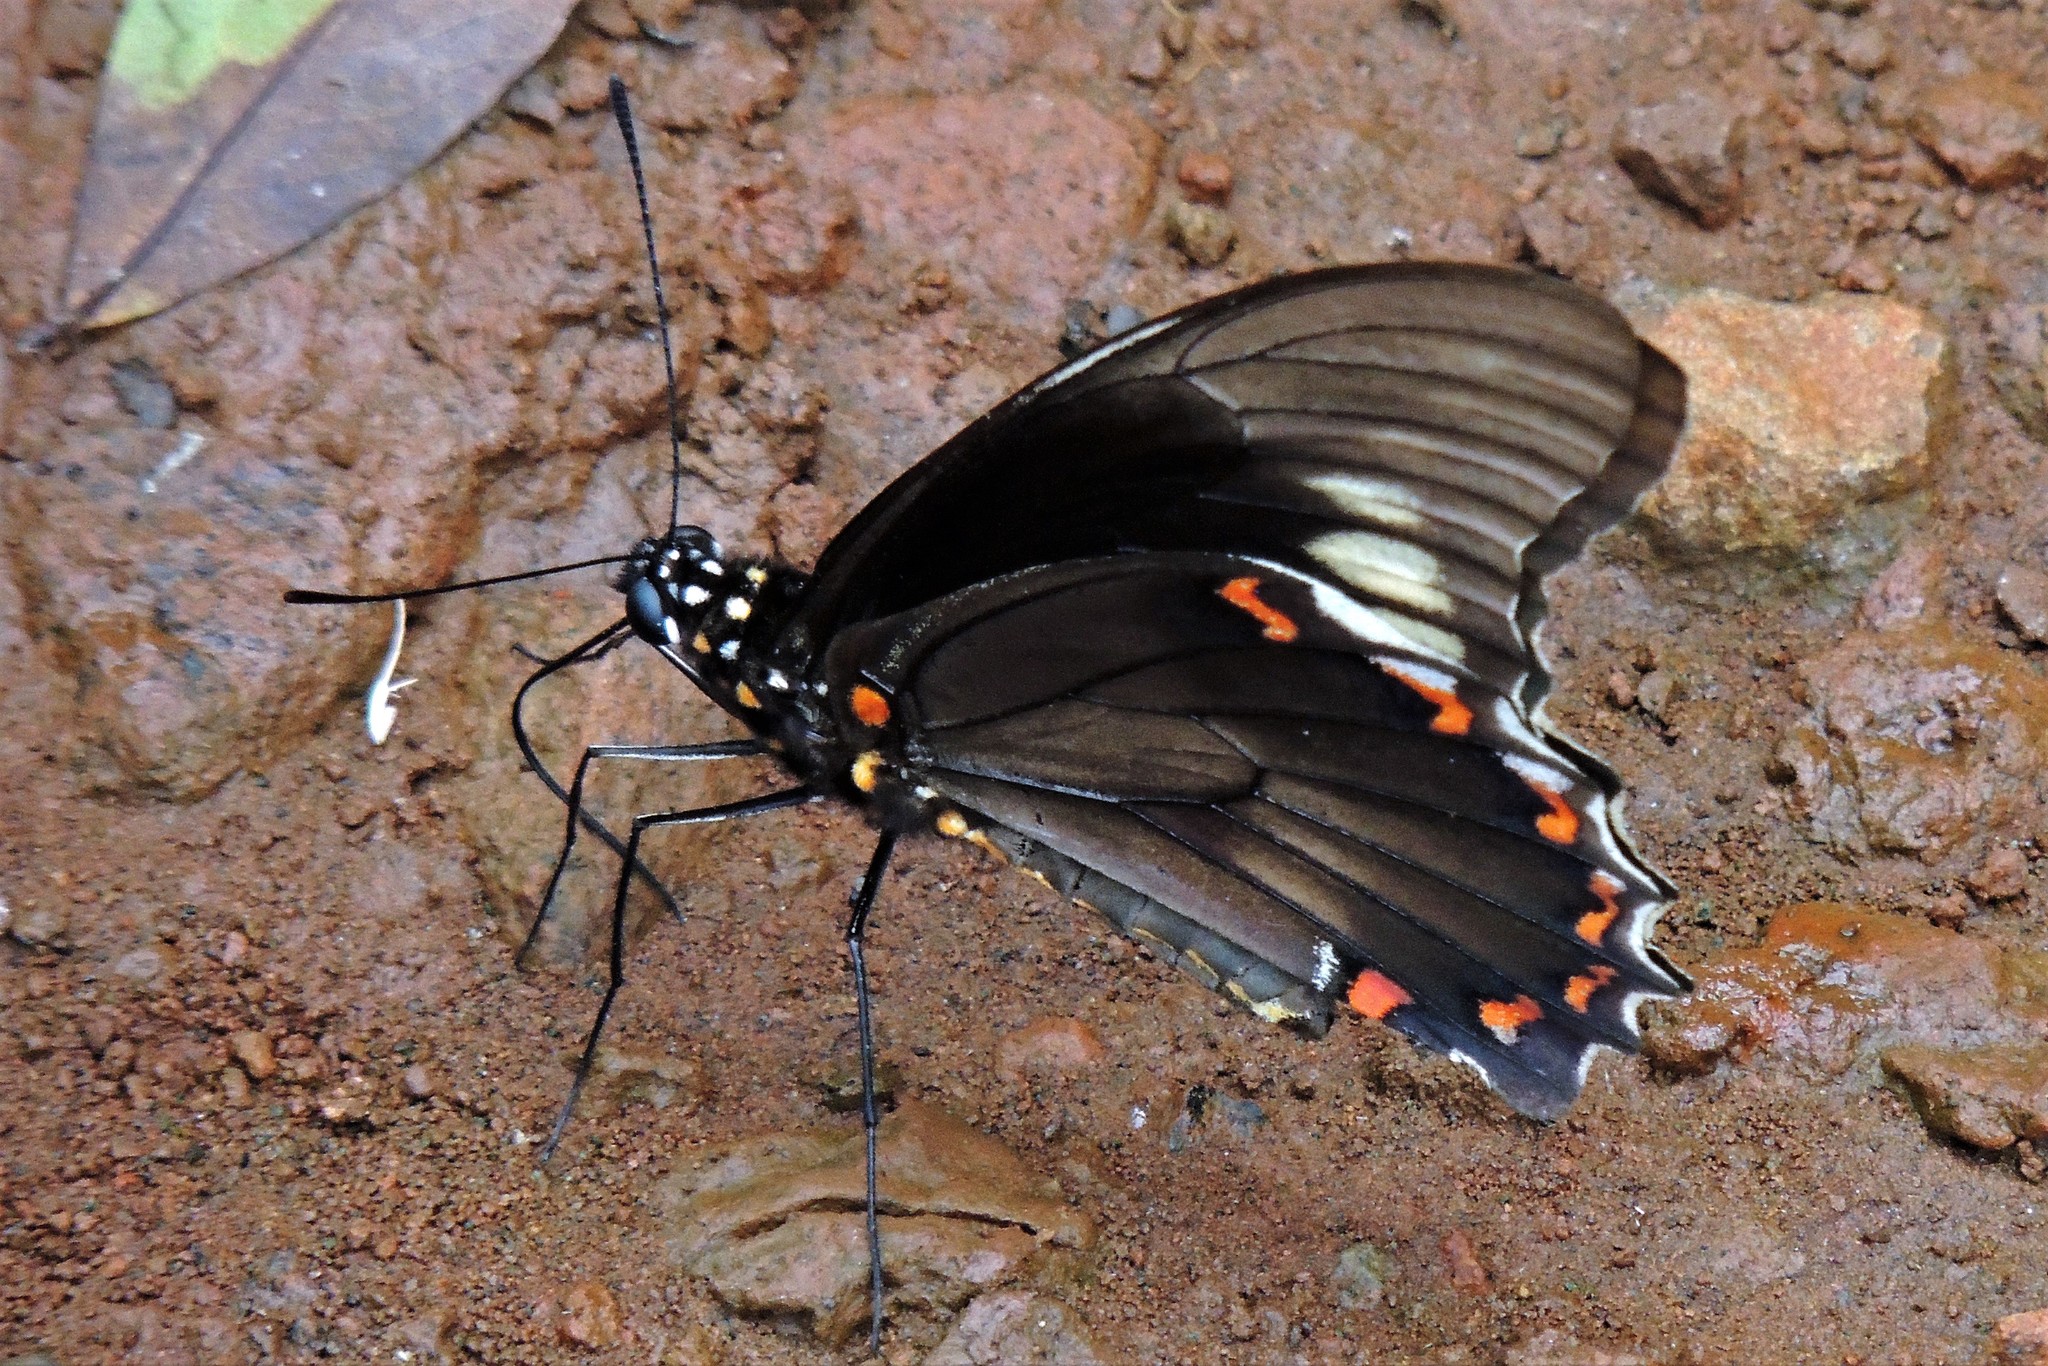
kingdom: Animalia
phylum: Arthropoda
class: Insecta
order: Lepidoptera
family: Papilionidae
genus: Battus
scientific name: Battus polydamas
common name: Polydamas swallowtail
